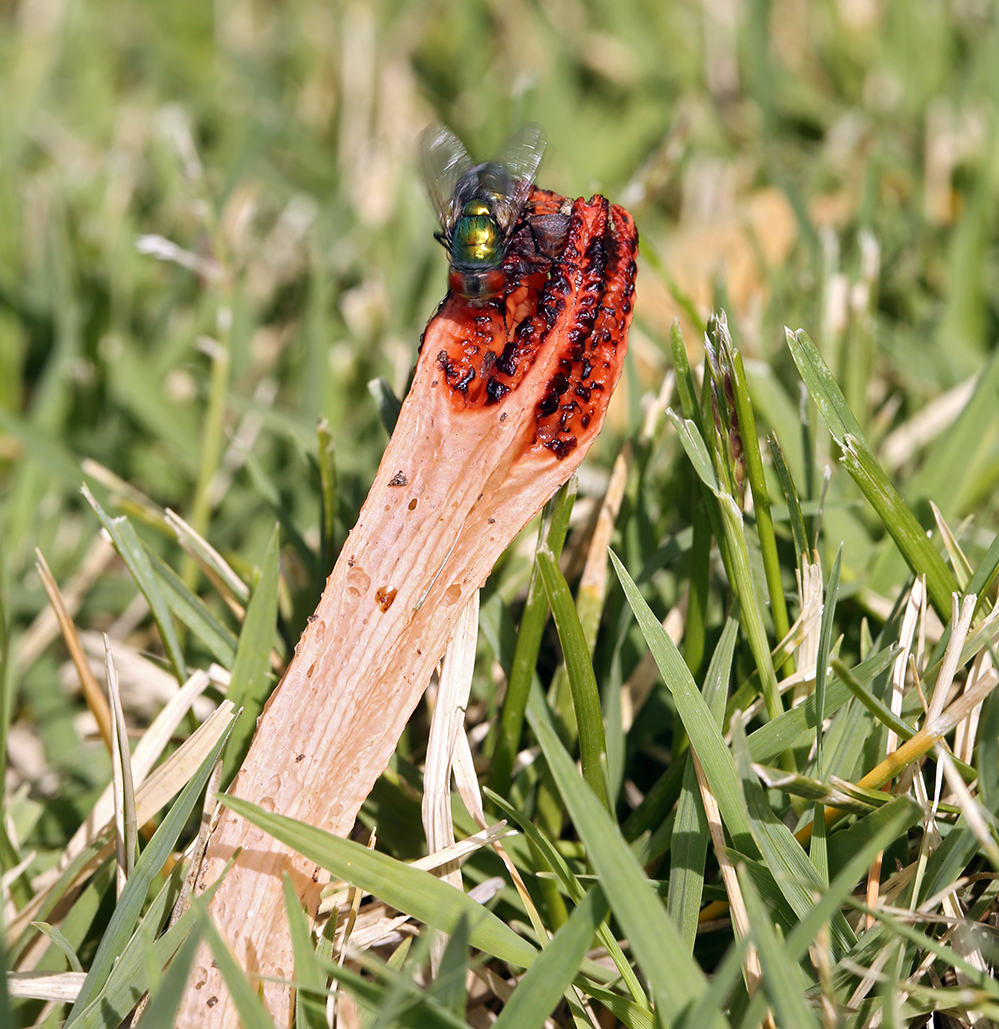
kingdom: Fungi
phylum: Basidiomycota
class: Agaricomycetes
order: Phallales
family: Phallaceae
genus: Lysurus
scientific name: Lysurus mokusin
